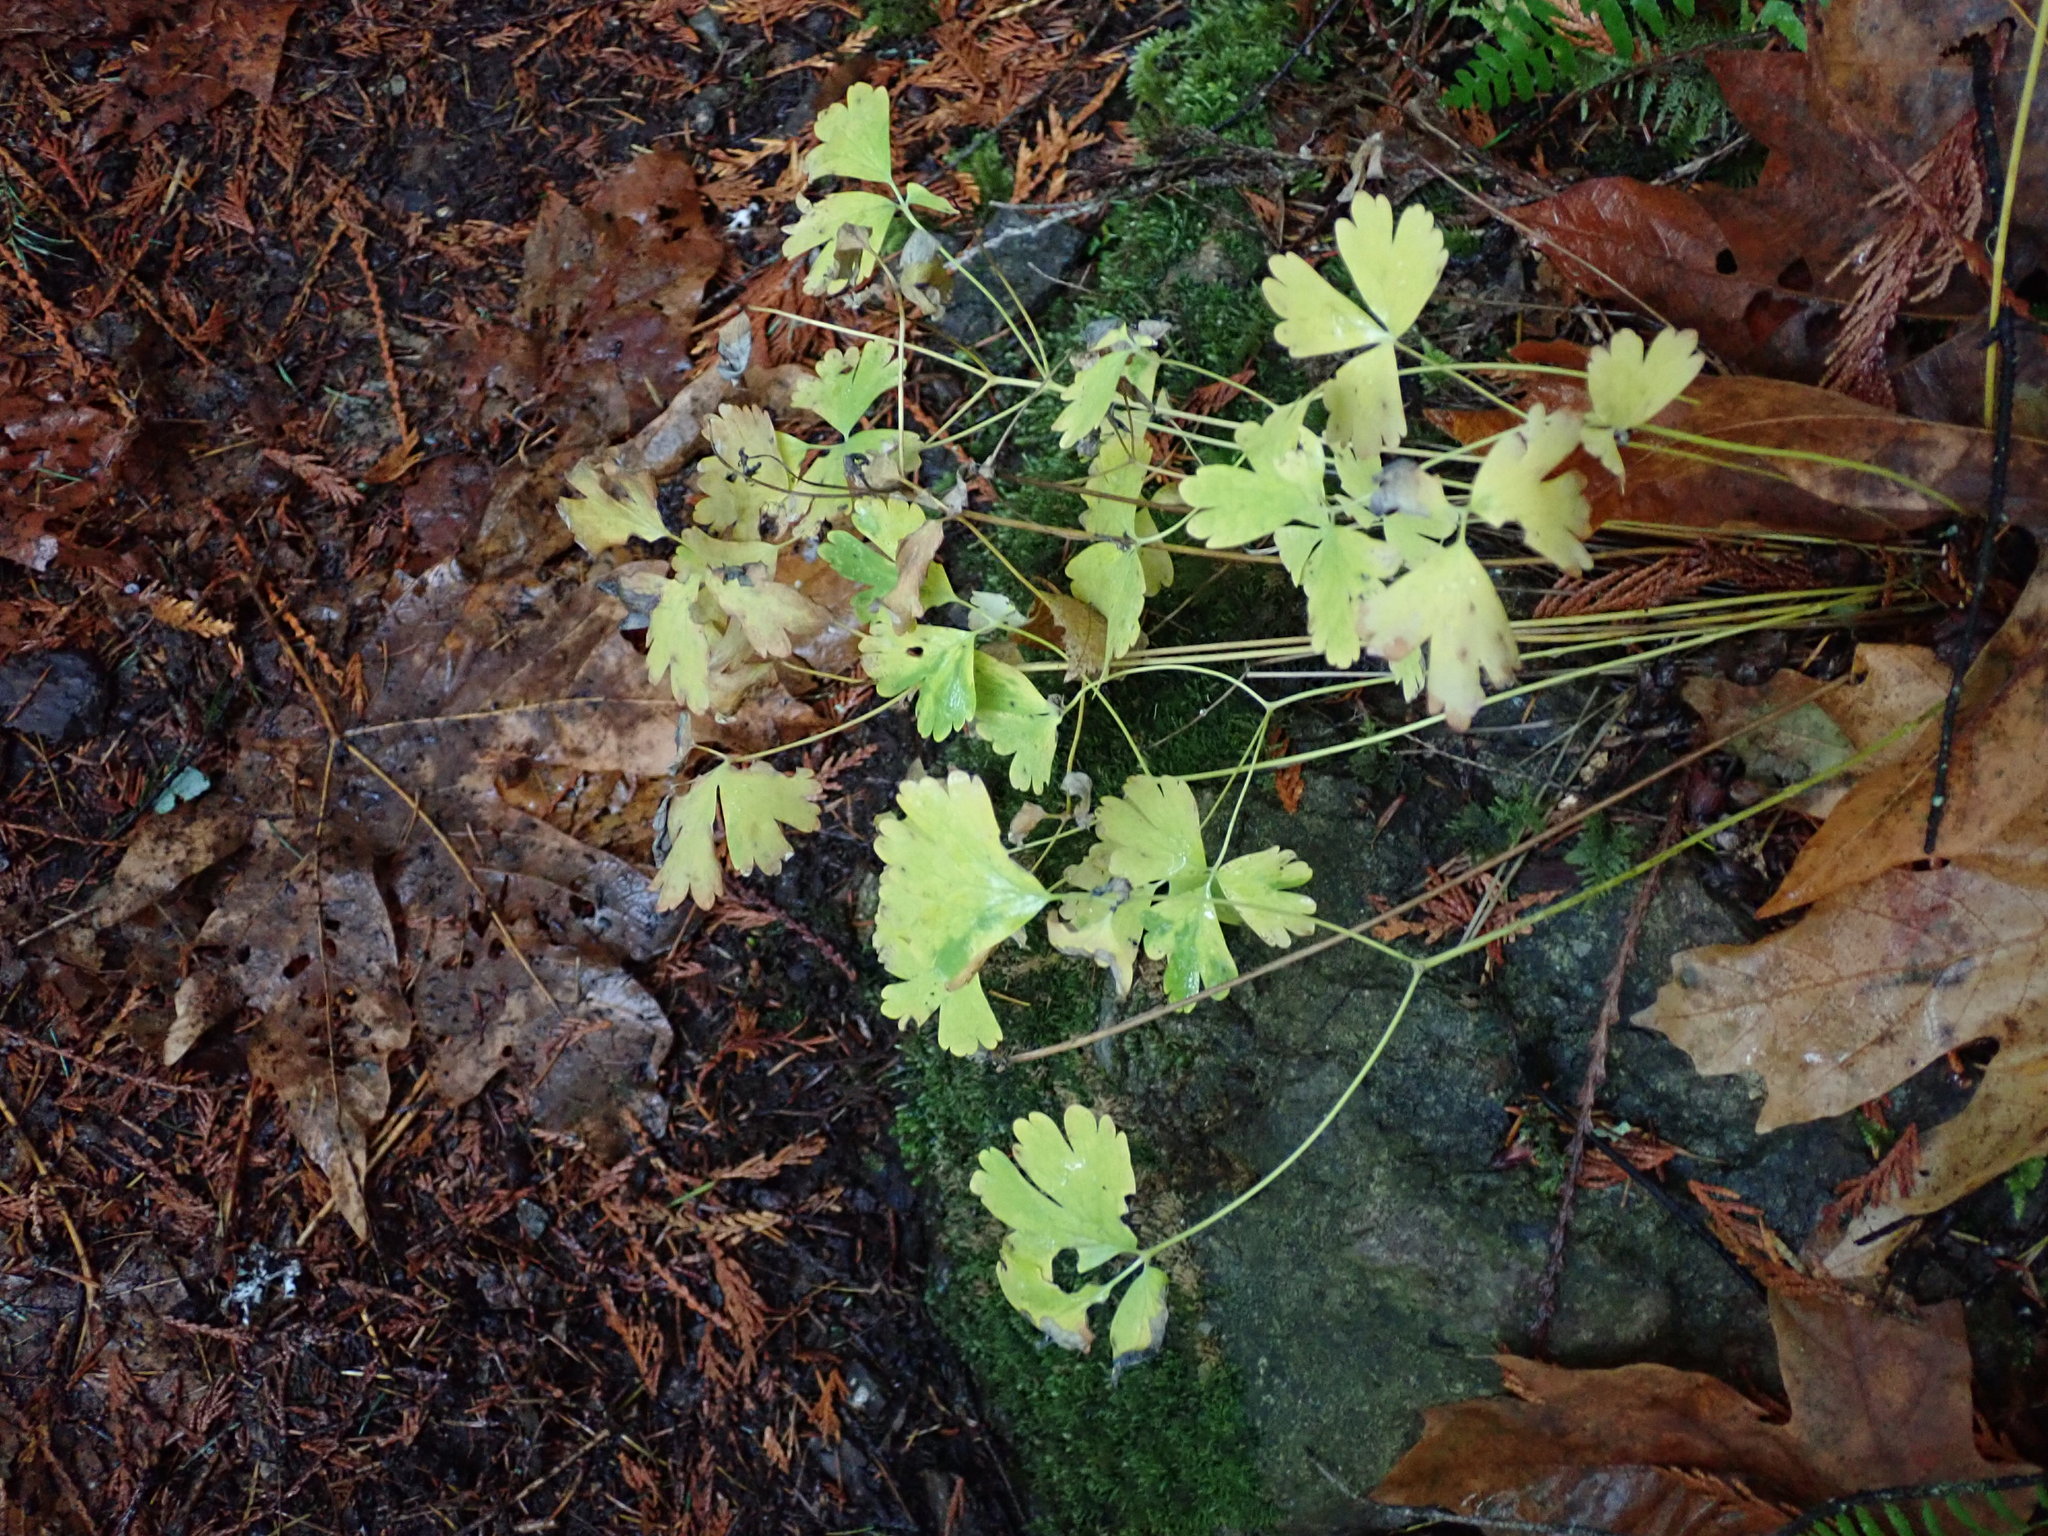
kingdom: Plantae
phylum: Tracheophyta
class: Magnoliopsida
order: Ranunculales
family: Ranunculaceae
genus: Aquilegia
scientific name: Aquilegia formosa
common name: Sitka columbine
